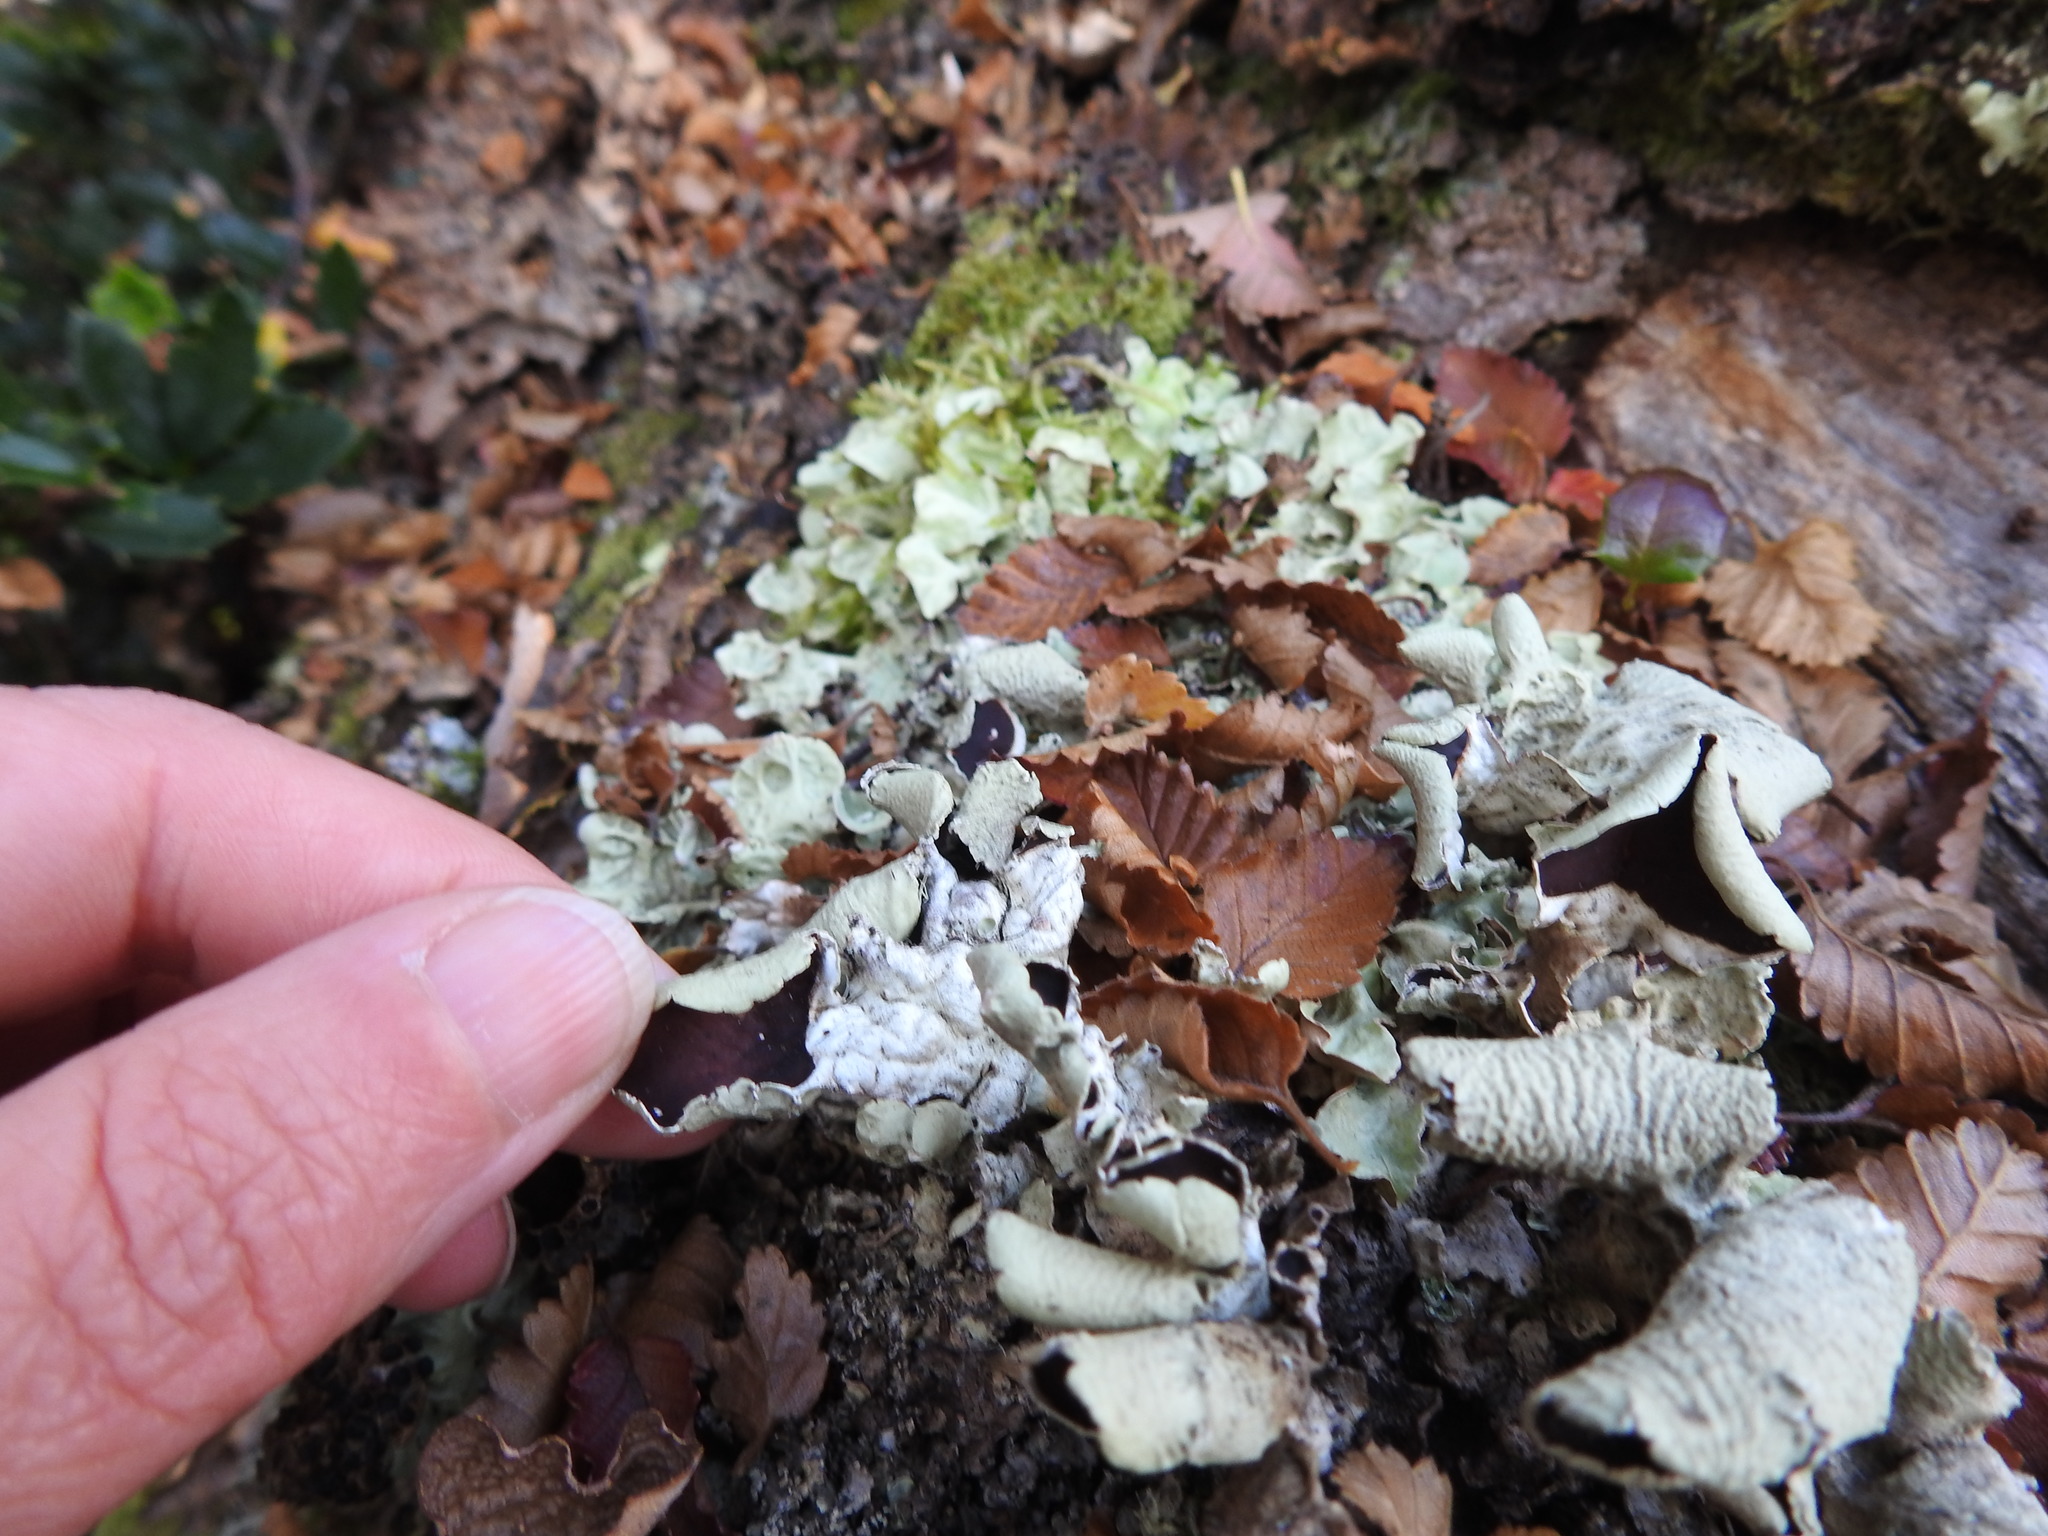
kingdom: Fungi
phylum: Ascomycota
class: Lecanoromycetes
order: Peltigerales
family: Nephromataceae
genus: Nephroma
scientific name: Nephroma australe
